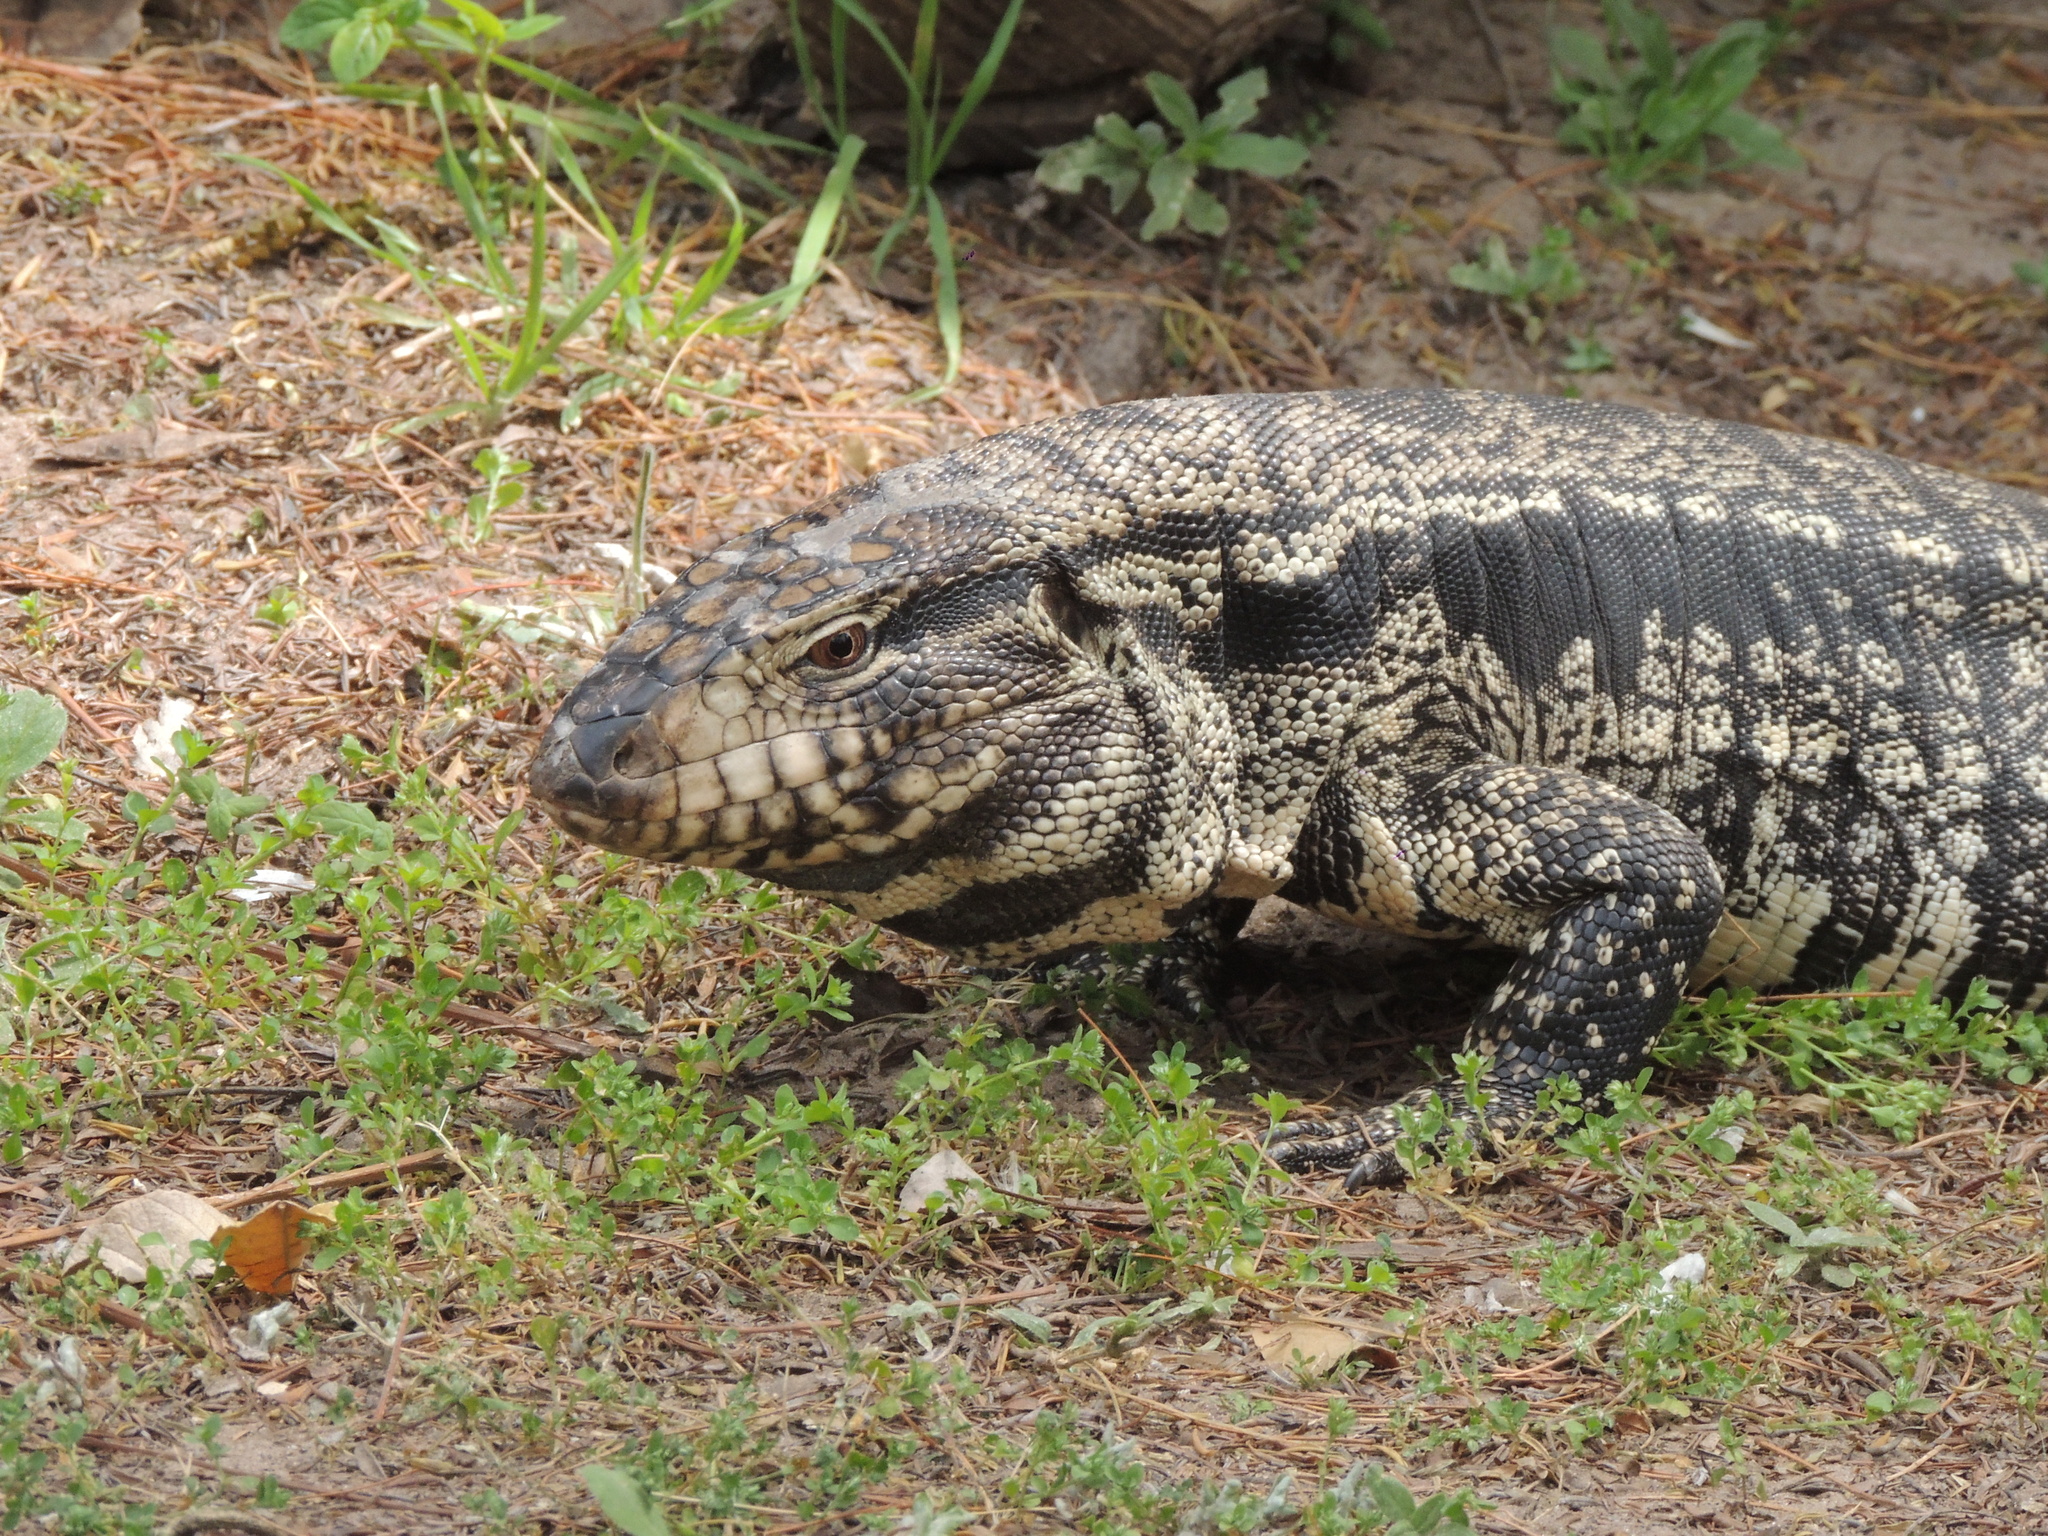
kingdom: Animalia
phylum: Chordata
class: Squamata
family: Teiidae
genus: Salvator
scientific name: Salvator merianae
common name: Argentine black and white tegu
